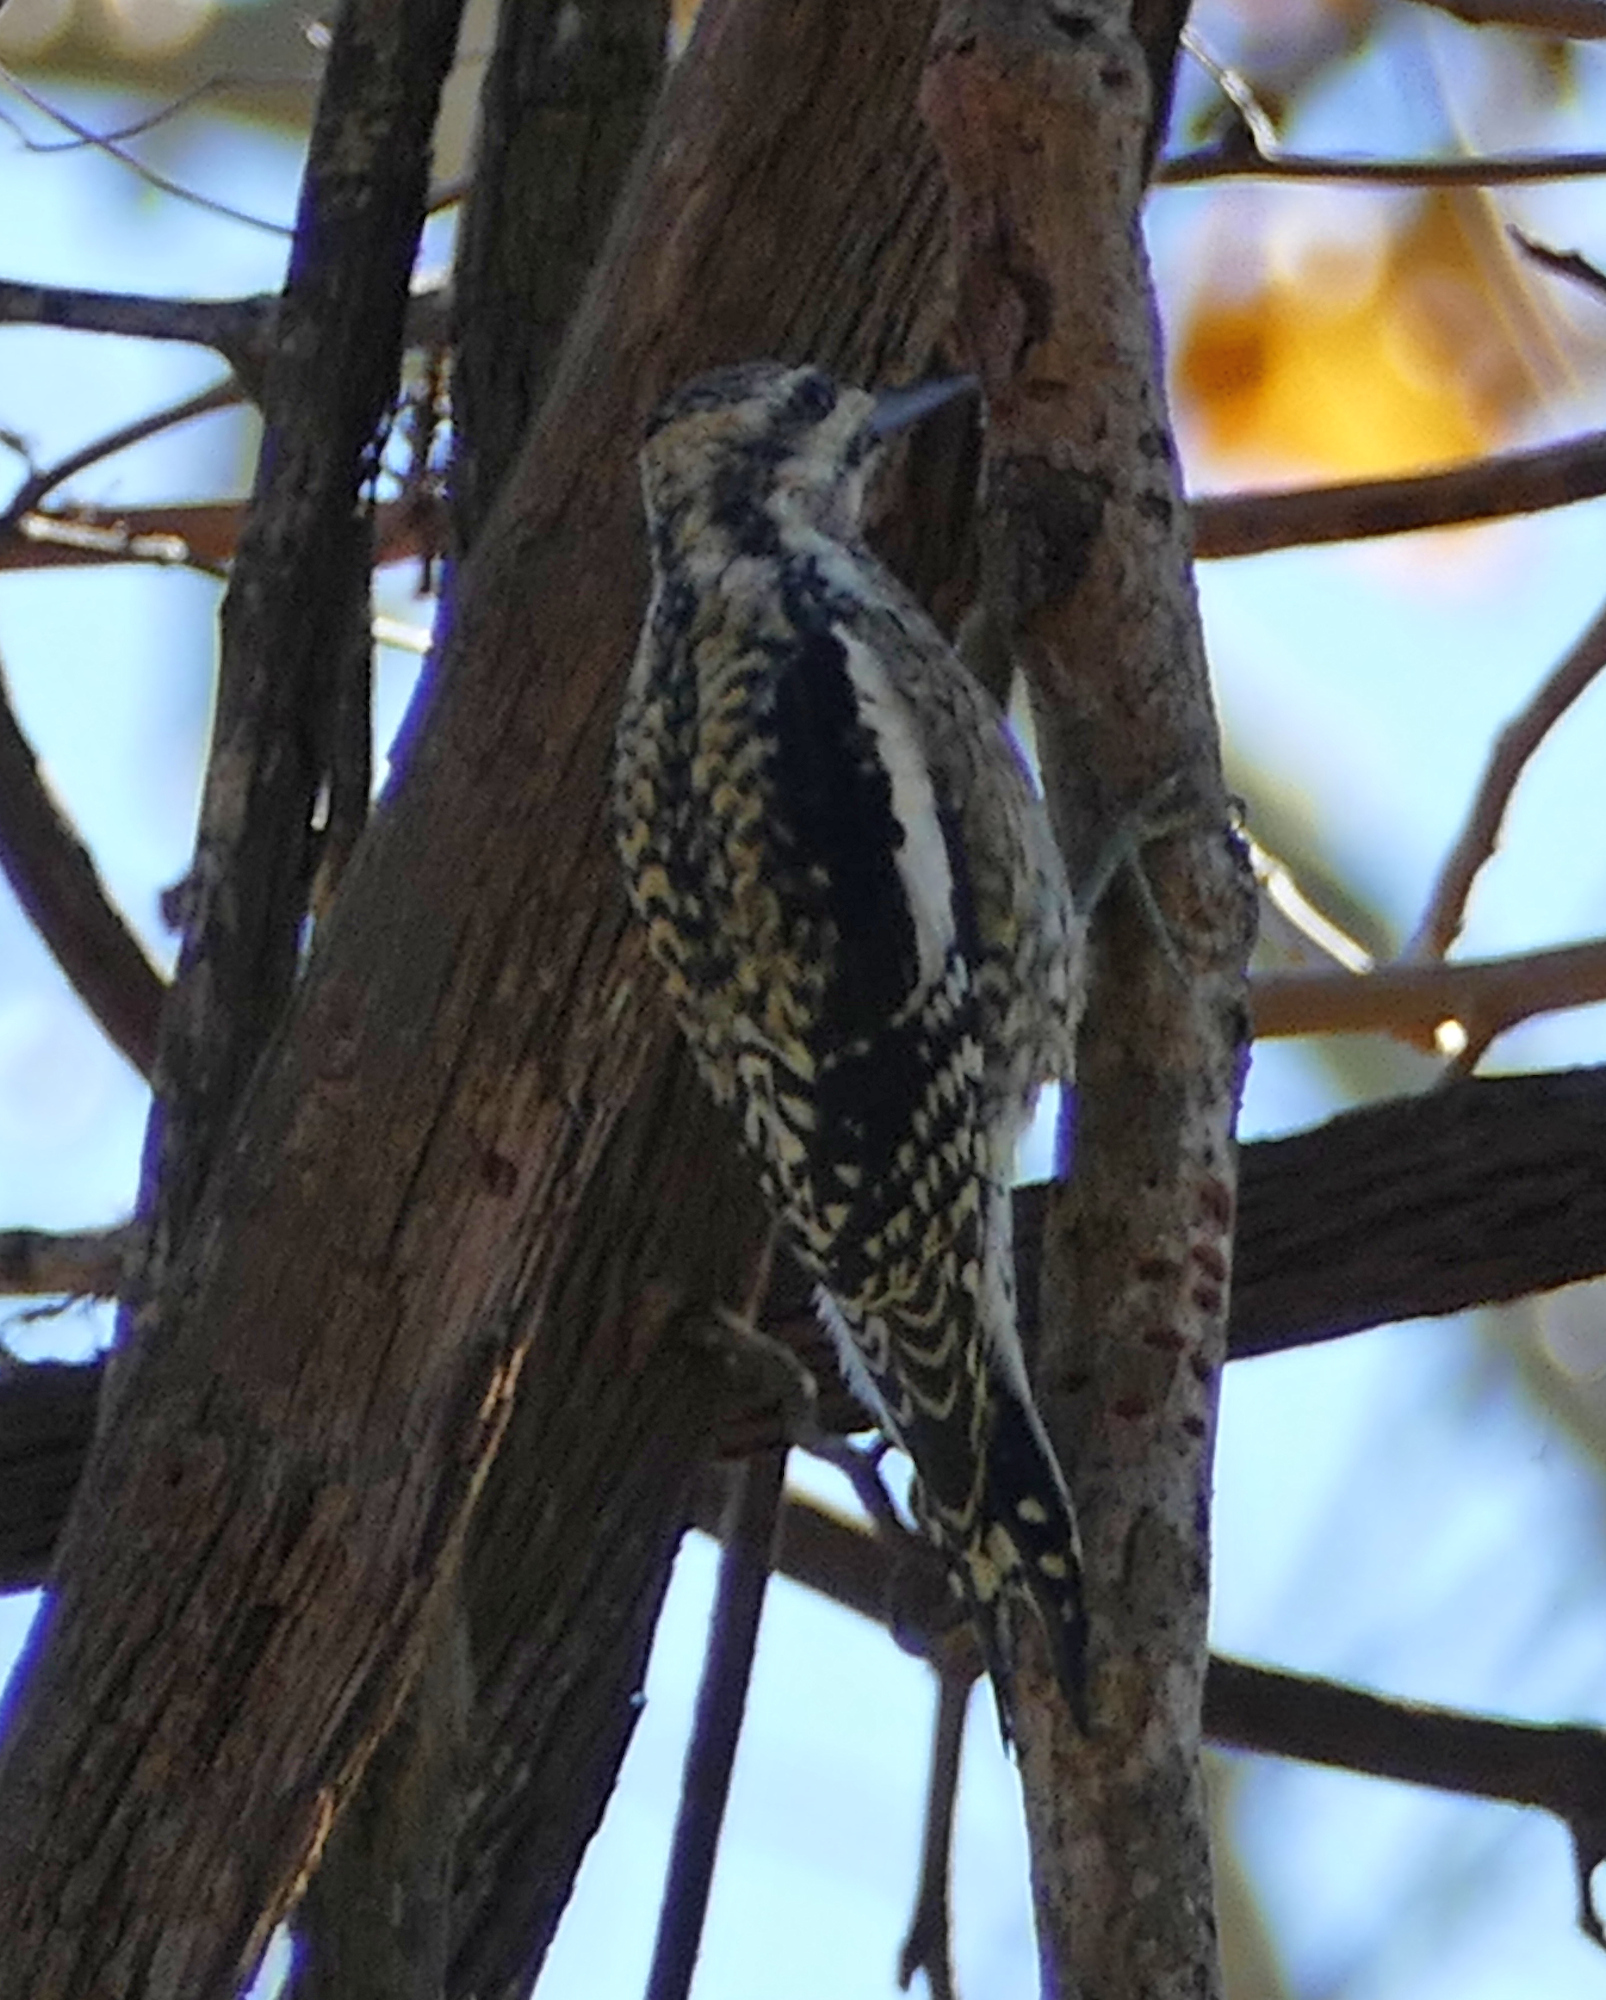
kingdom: Animalia
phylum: Chordata
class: Aves
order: Piciformes
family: Picidae
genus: Sphyrapicus
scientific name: Sphyrapicus varius
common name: Yellow-bellied sapsucker
